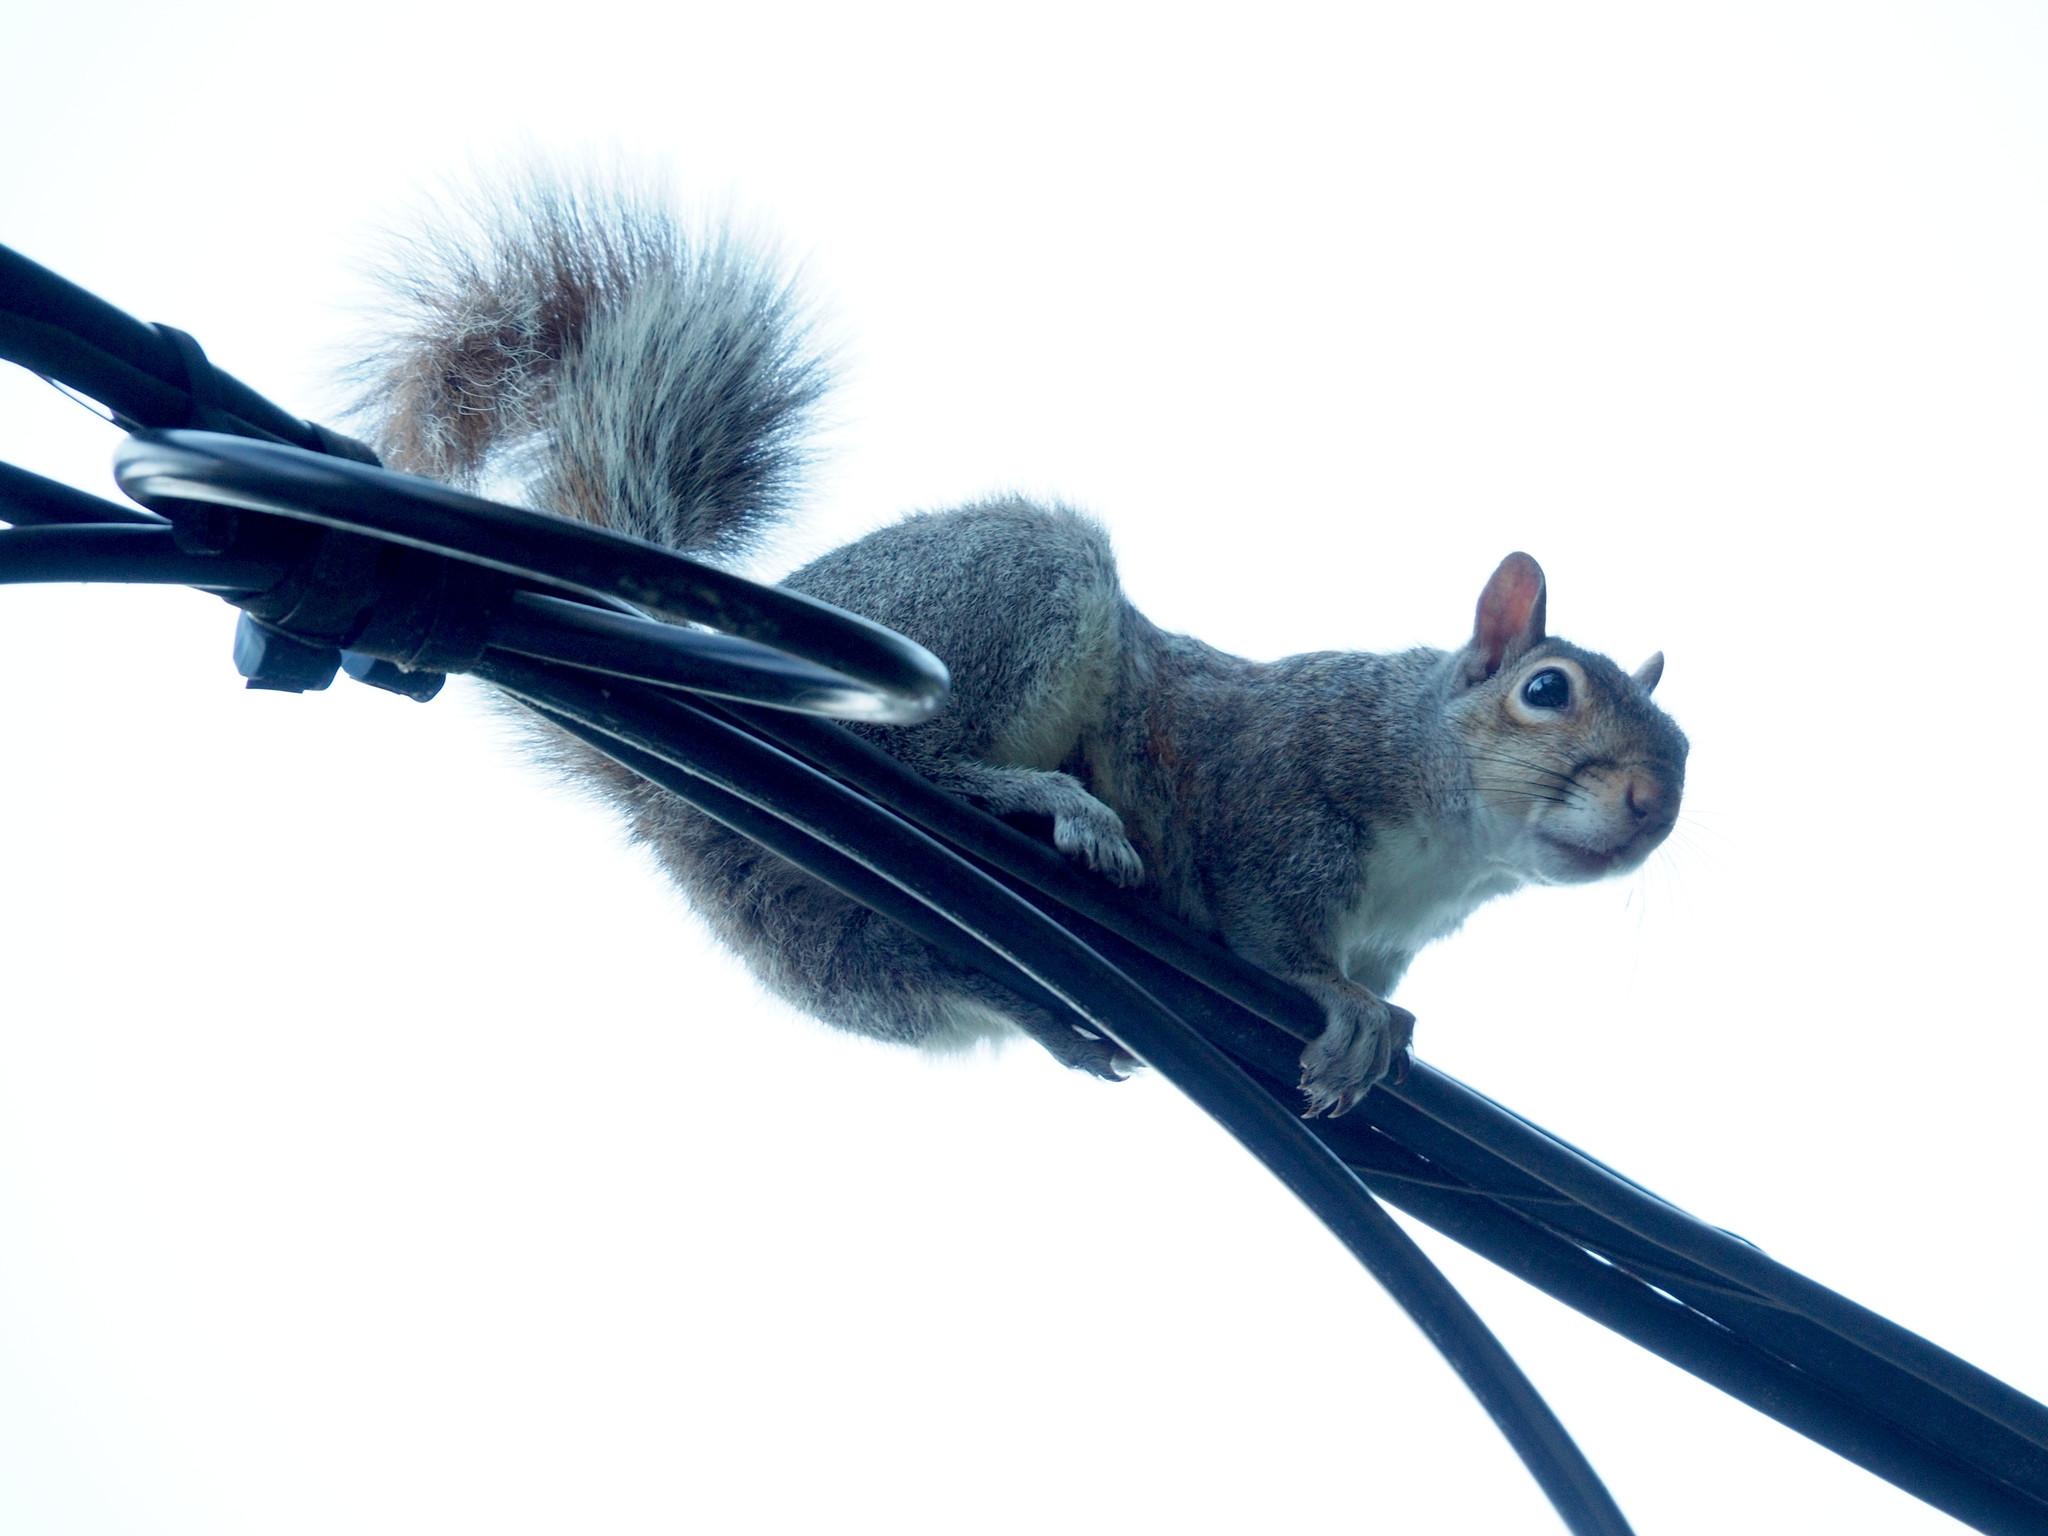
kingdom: Animalia
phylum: Chordata
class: Mammalia
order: Rodentia
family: Sciuridae
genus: Sciurus
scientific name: Sciurus carolinensis
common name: Eastern gray squirrel
